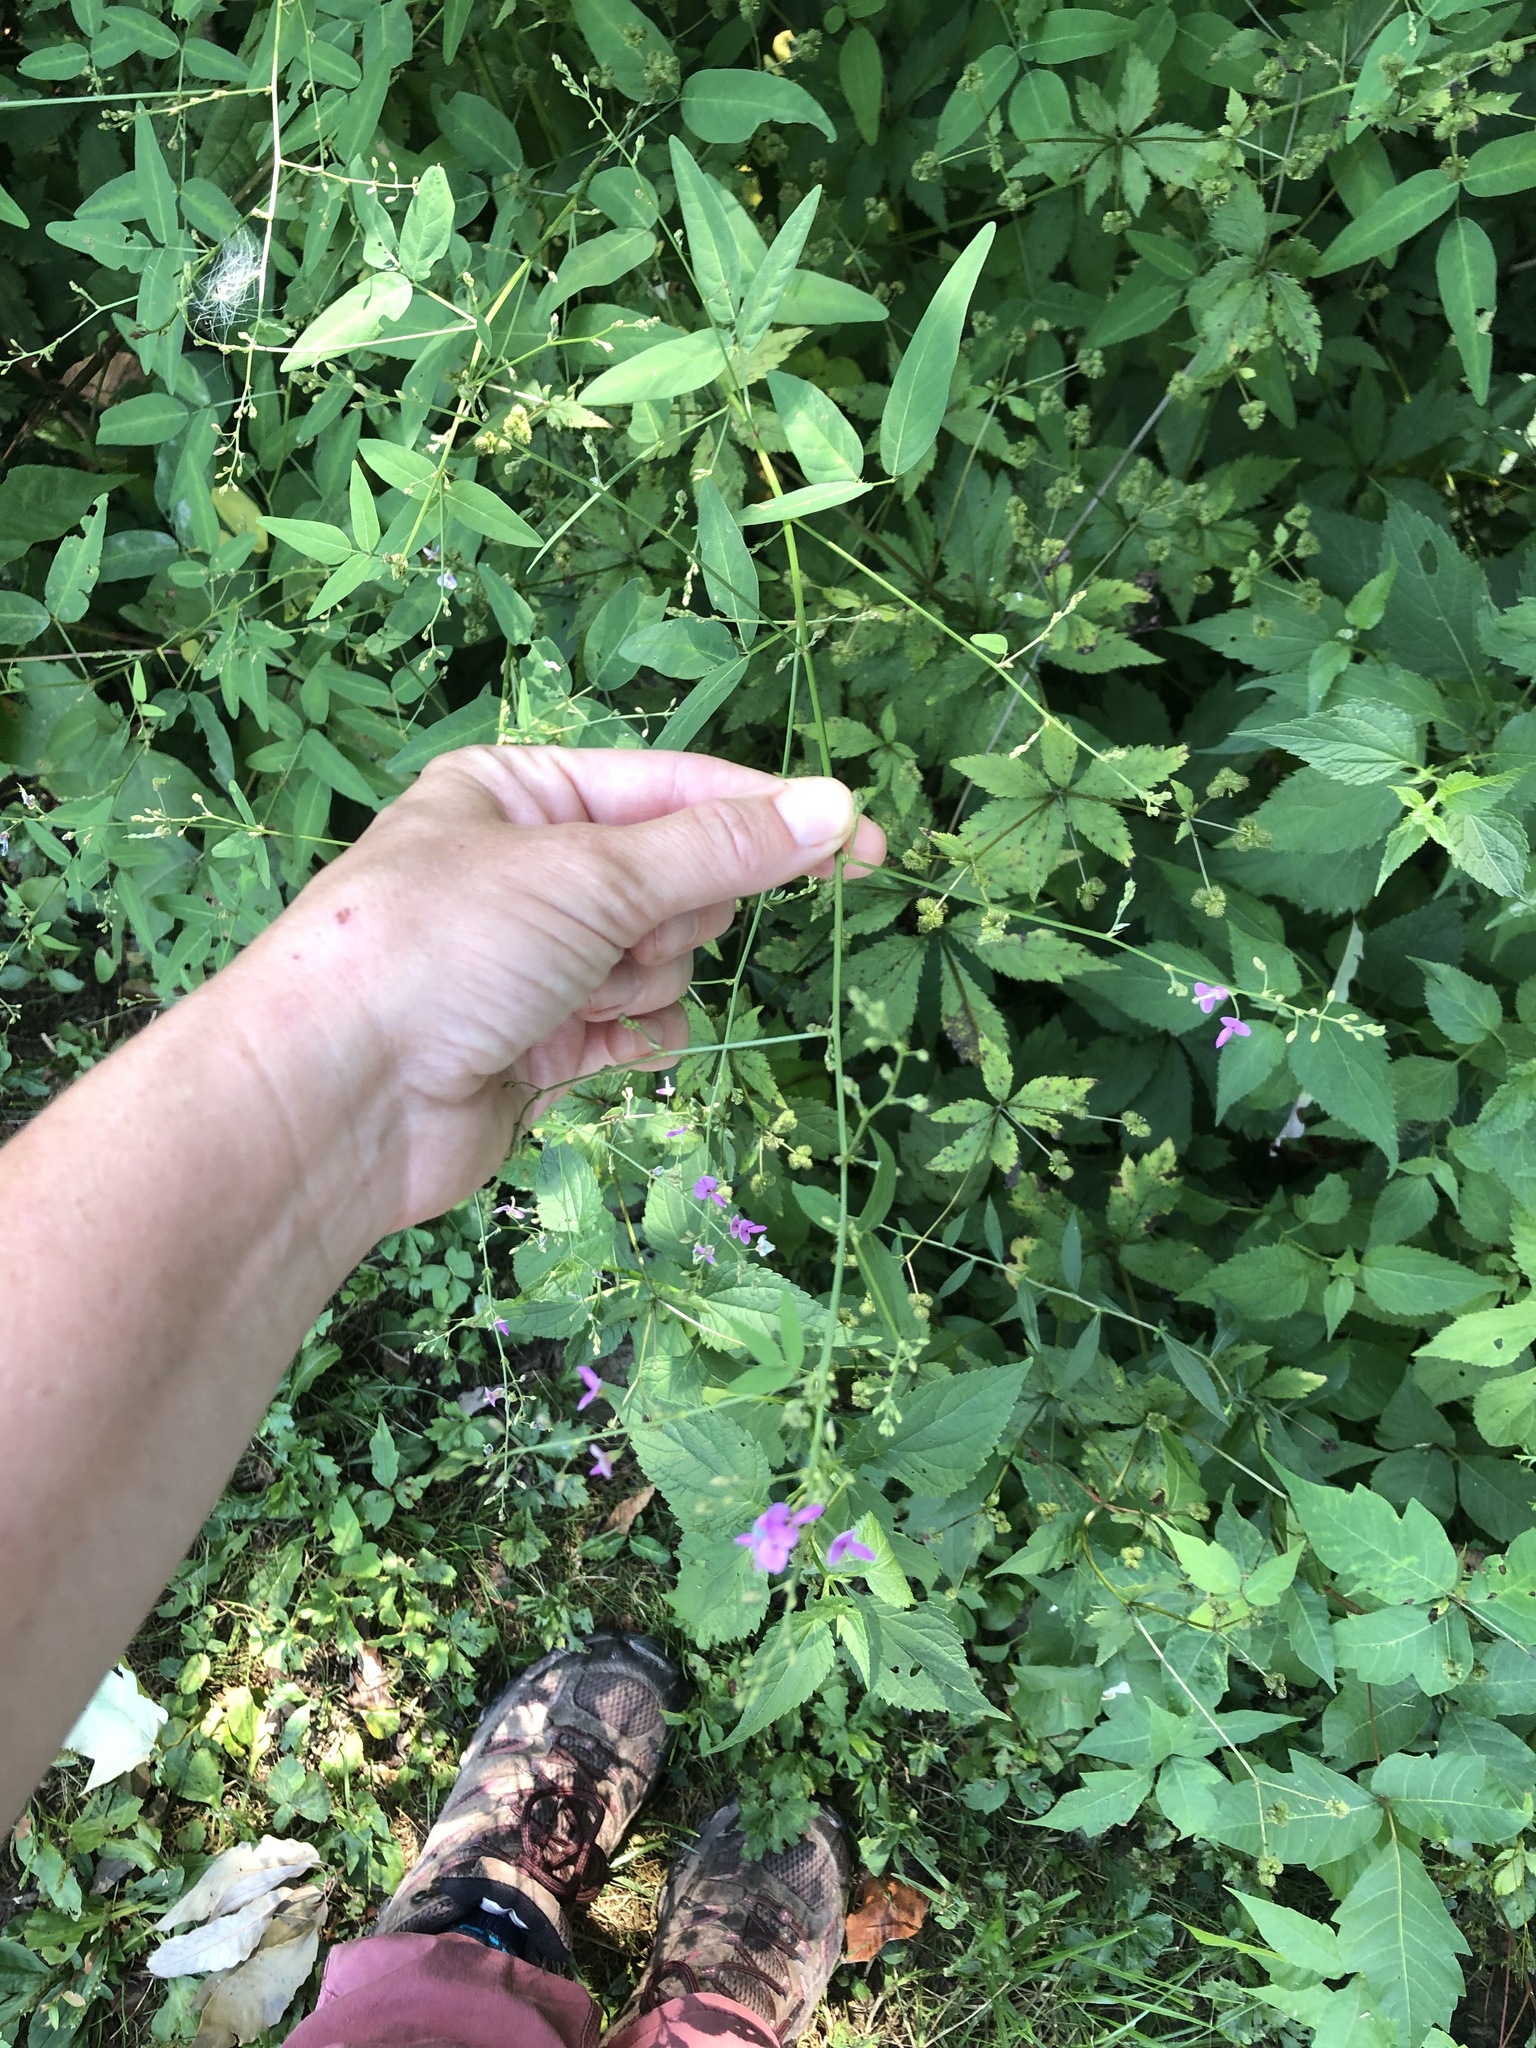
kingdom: Plantae
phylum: Tracheophyta
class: Magnoliopsida
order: Fabales
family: Fabaceae
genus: Desmodium
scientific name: Desmodium paniculatum
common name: Panicled tick-clover
